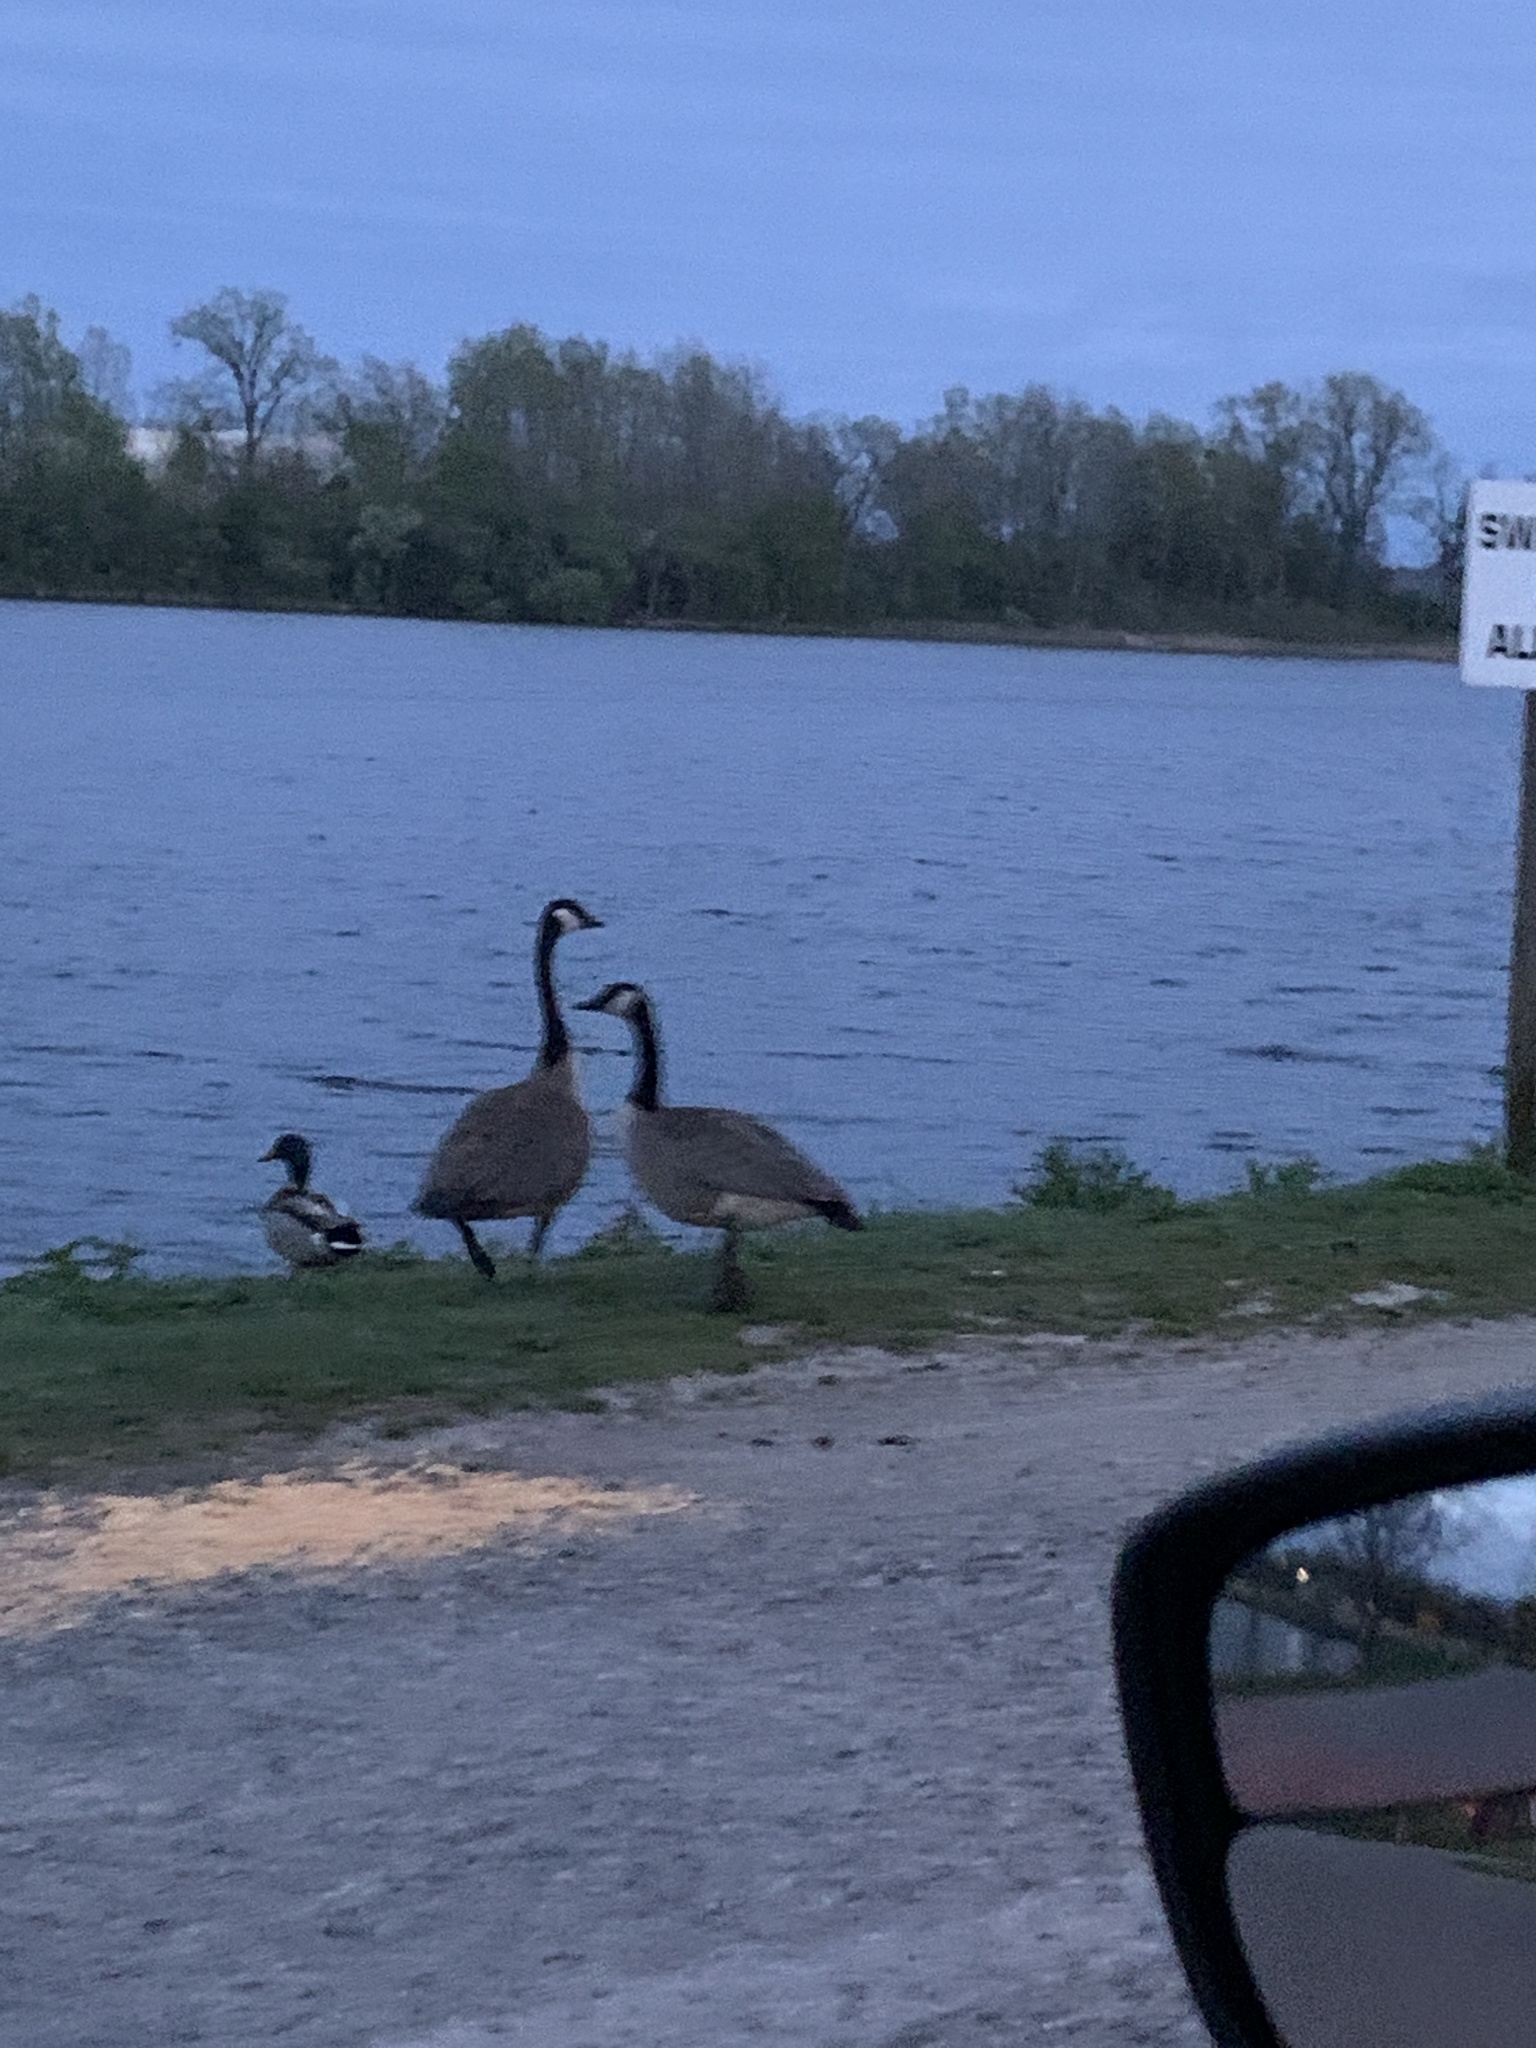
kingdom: Animalia
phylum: Chordata
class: Aves
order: Anseriformes
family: Anatidae
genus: Branta
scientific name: Branta canadensis
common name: Canada goose
